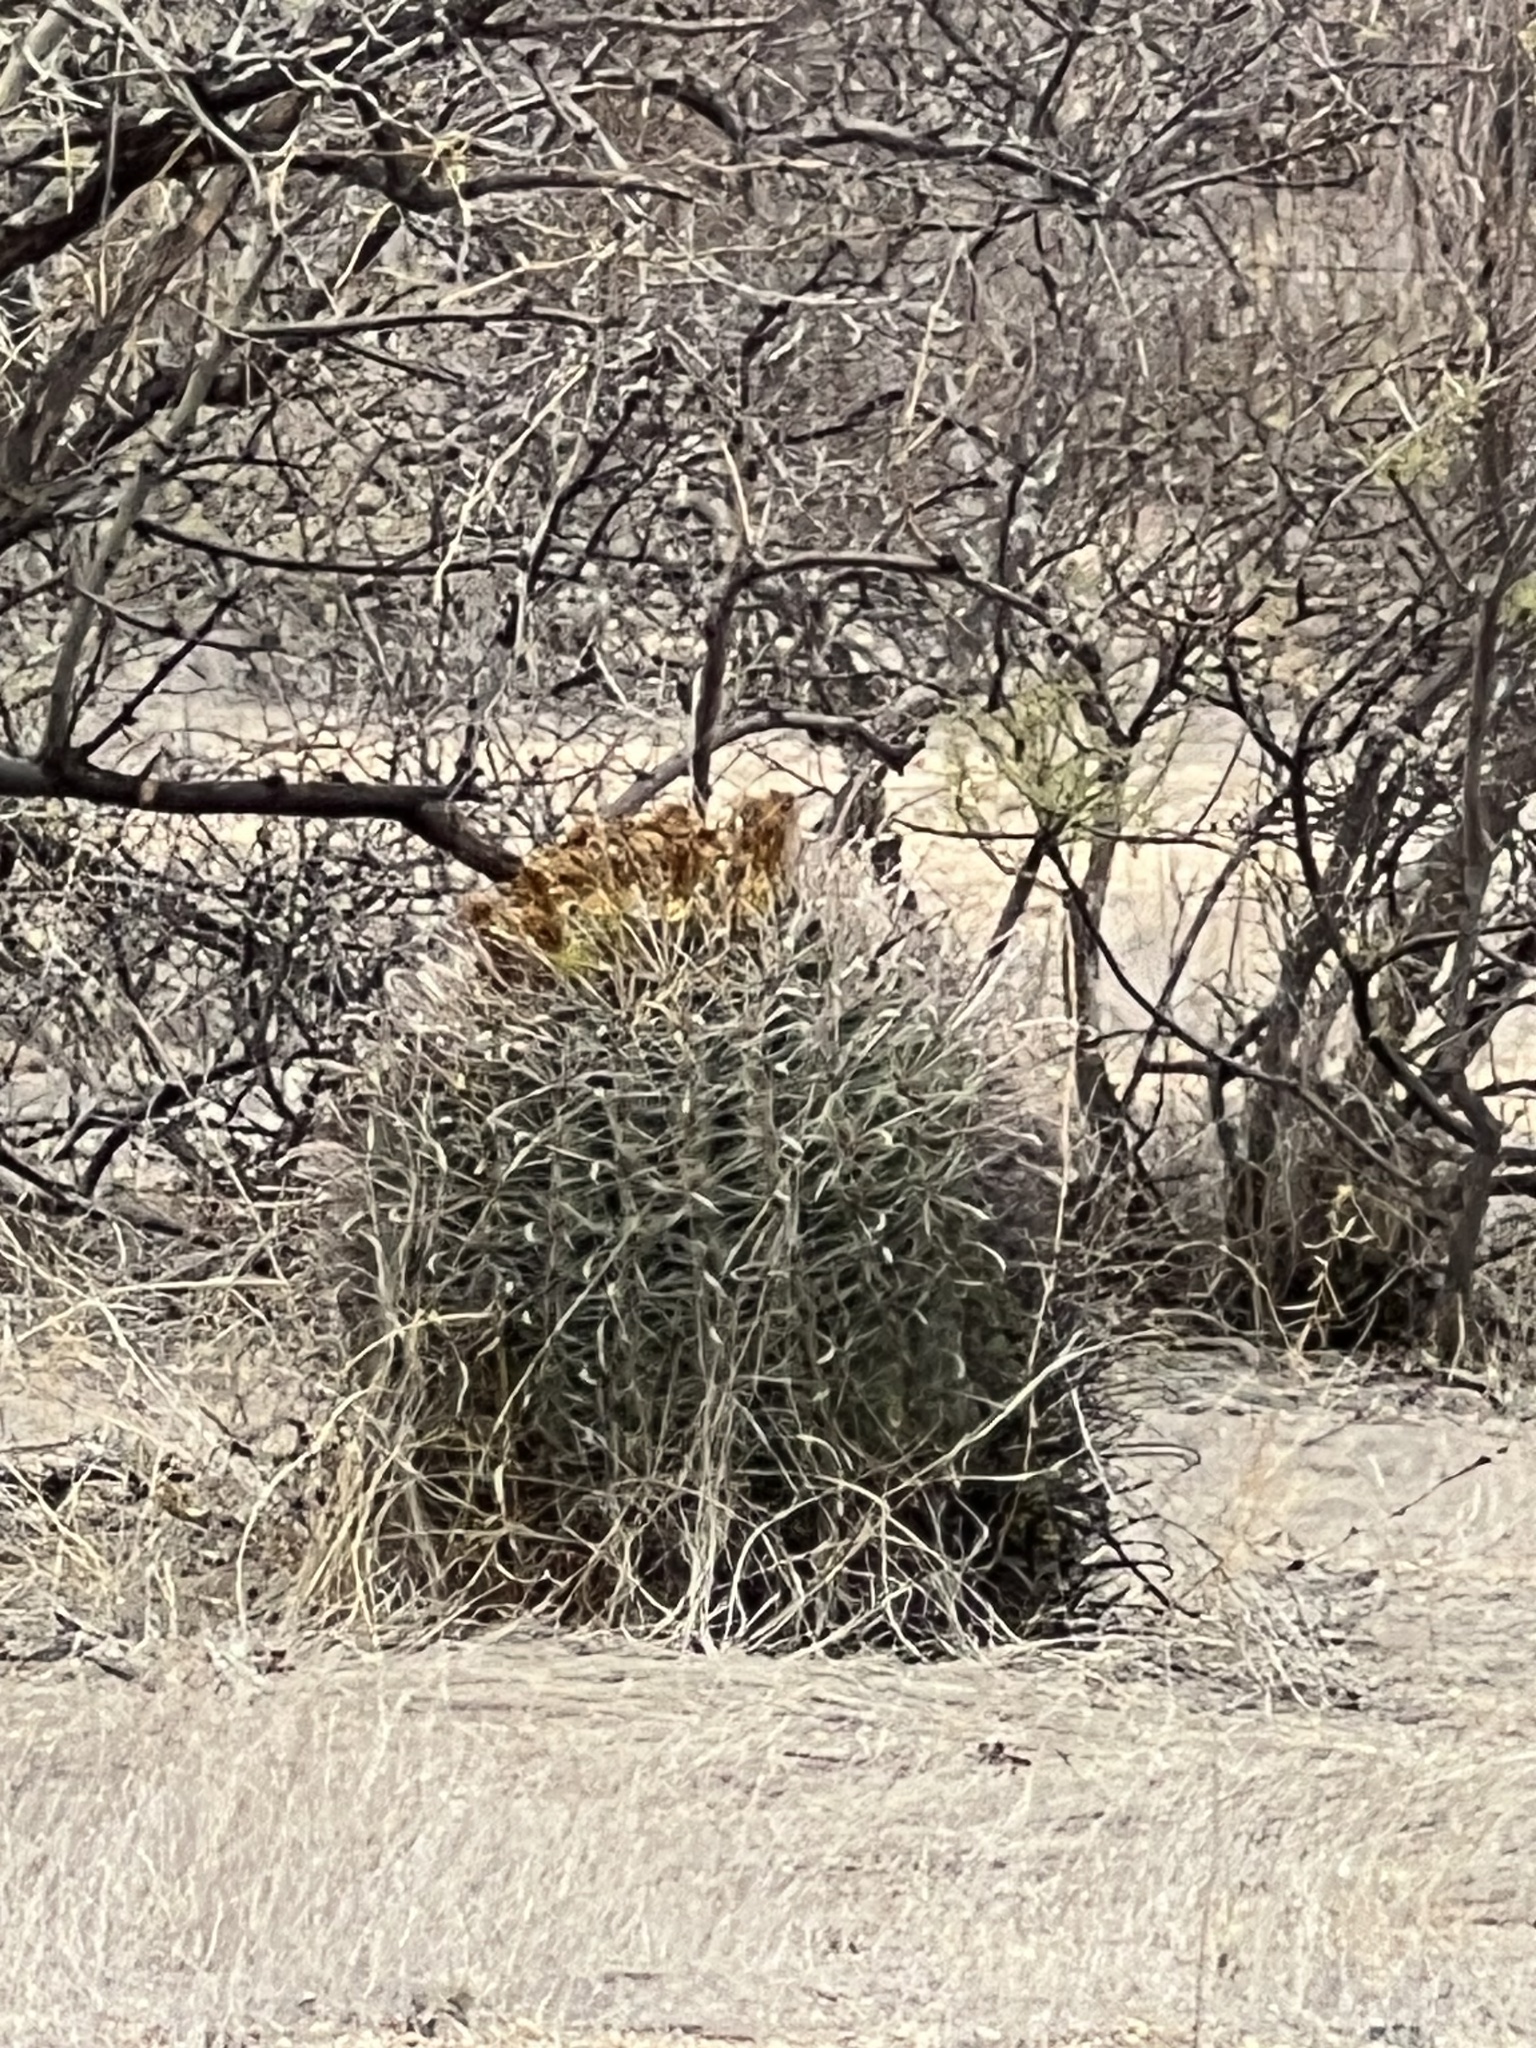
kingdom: Plantae
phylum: Tracheophyta
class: Magnoliopsida
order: Caryophyllales
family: Cactaceae
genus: Ferocactus
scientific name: Ferocactus wislizeni
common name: Candy barrel cactus
